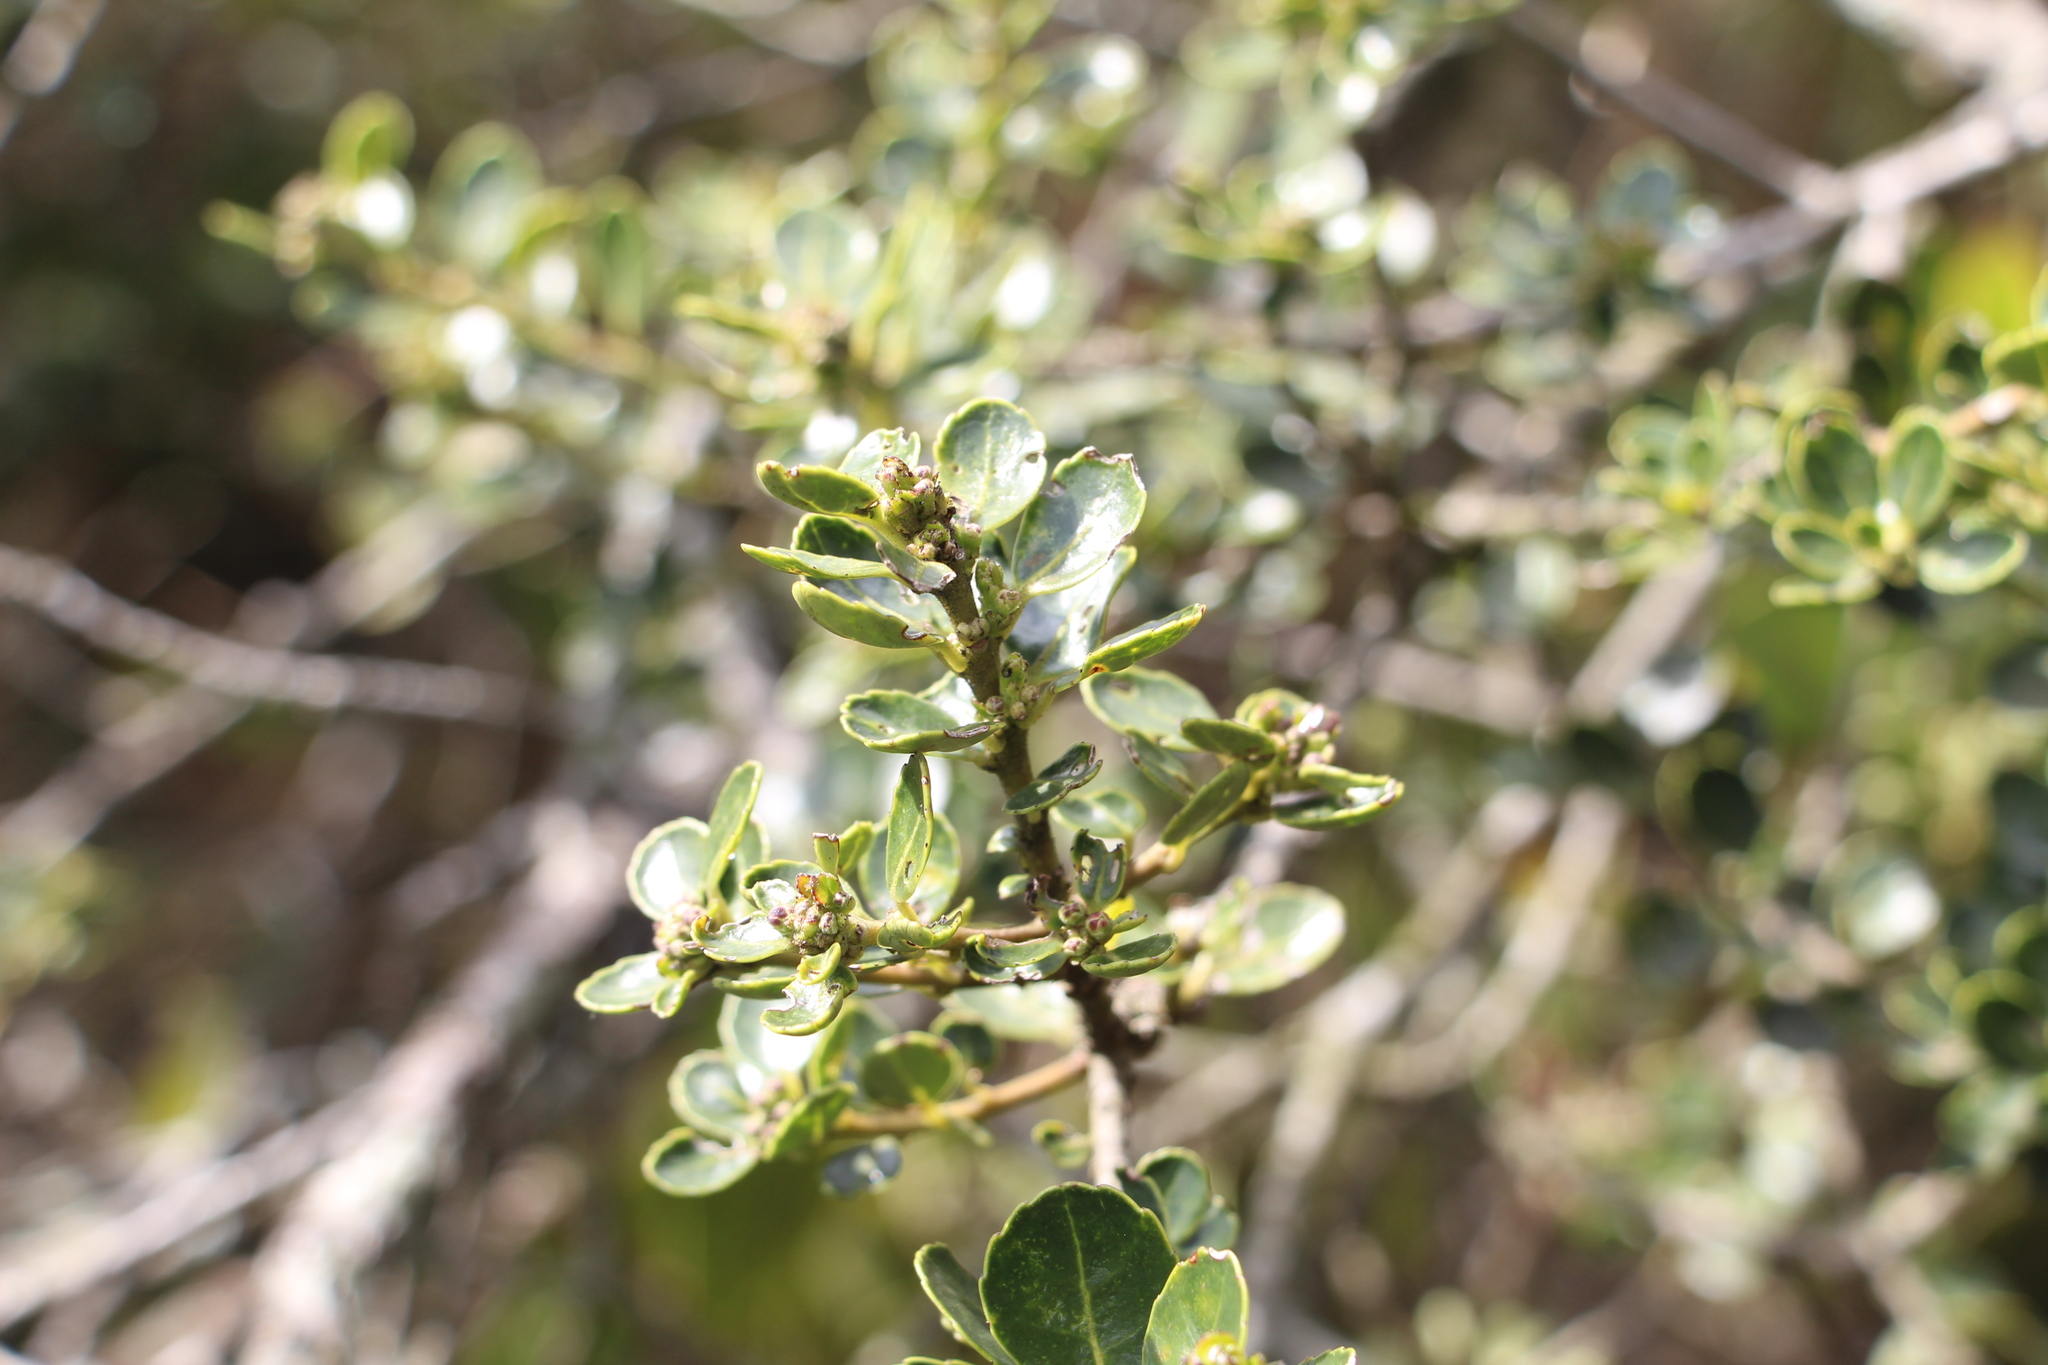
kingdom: Plantae
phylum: Tracheophyta
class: Magnoliopsida
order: Aquifoliales
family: Aquifoliaceae
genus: Ilex
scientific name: Ilex microphylla
